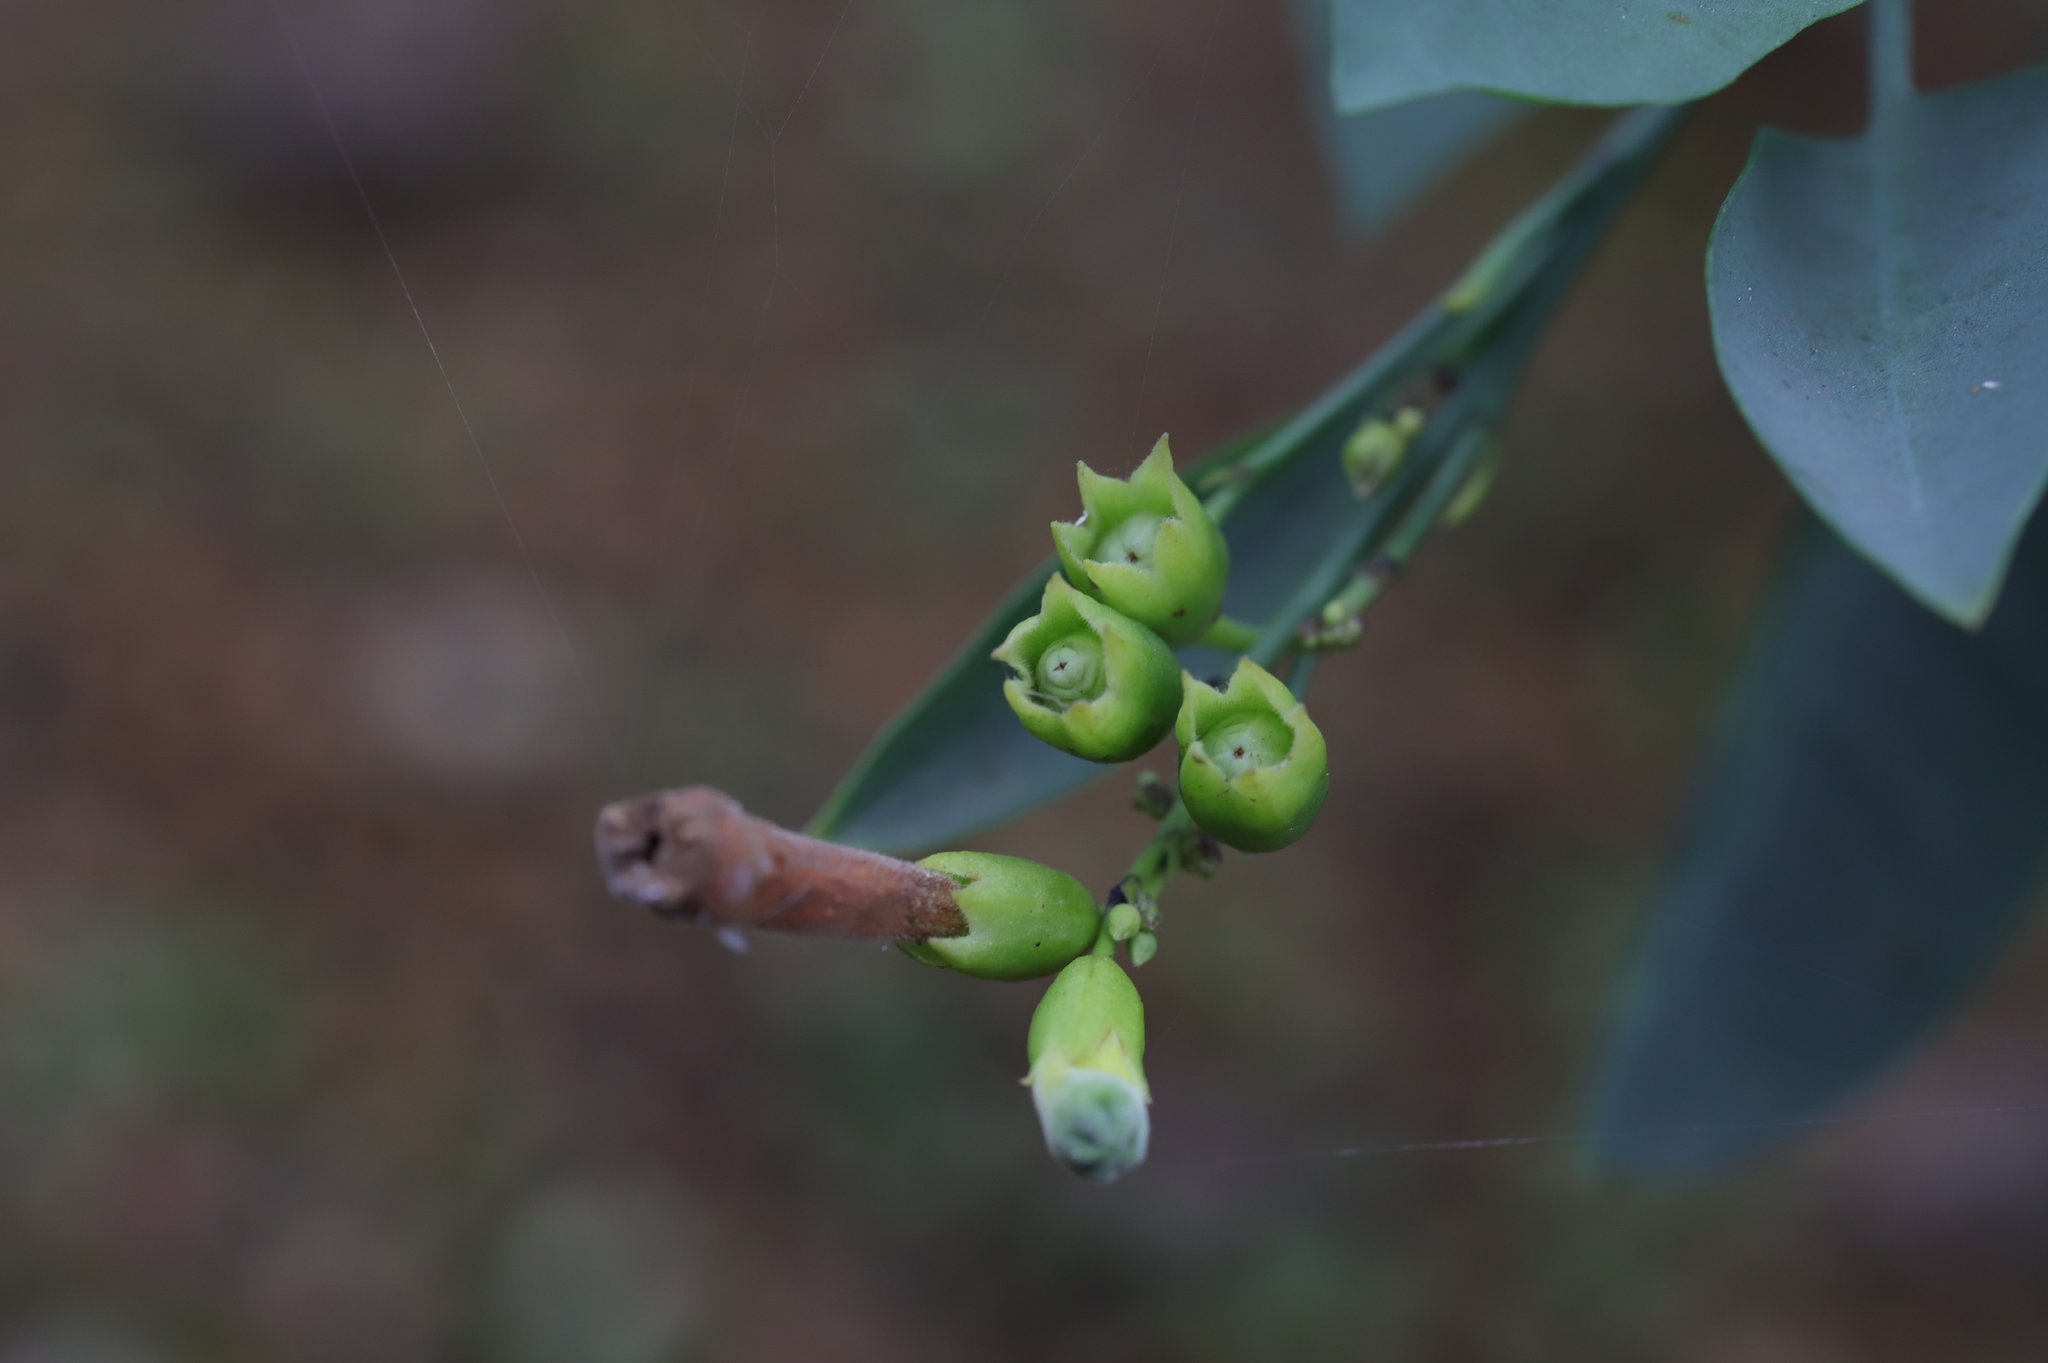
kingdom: Plantae
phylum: Tracheophyta
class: Magnoliopsida
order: Solanales
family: Solanaceae
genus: Nicotiana
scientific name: Nicotiana glauca
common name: Tree tobacco
